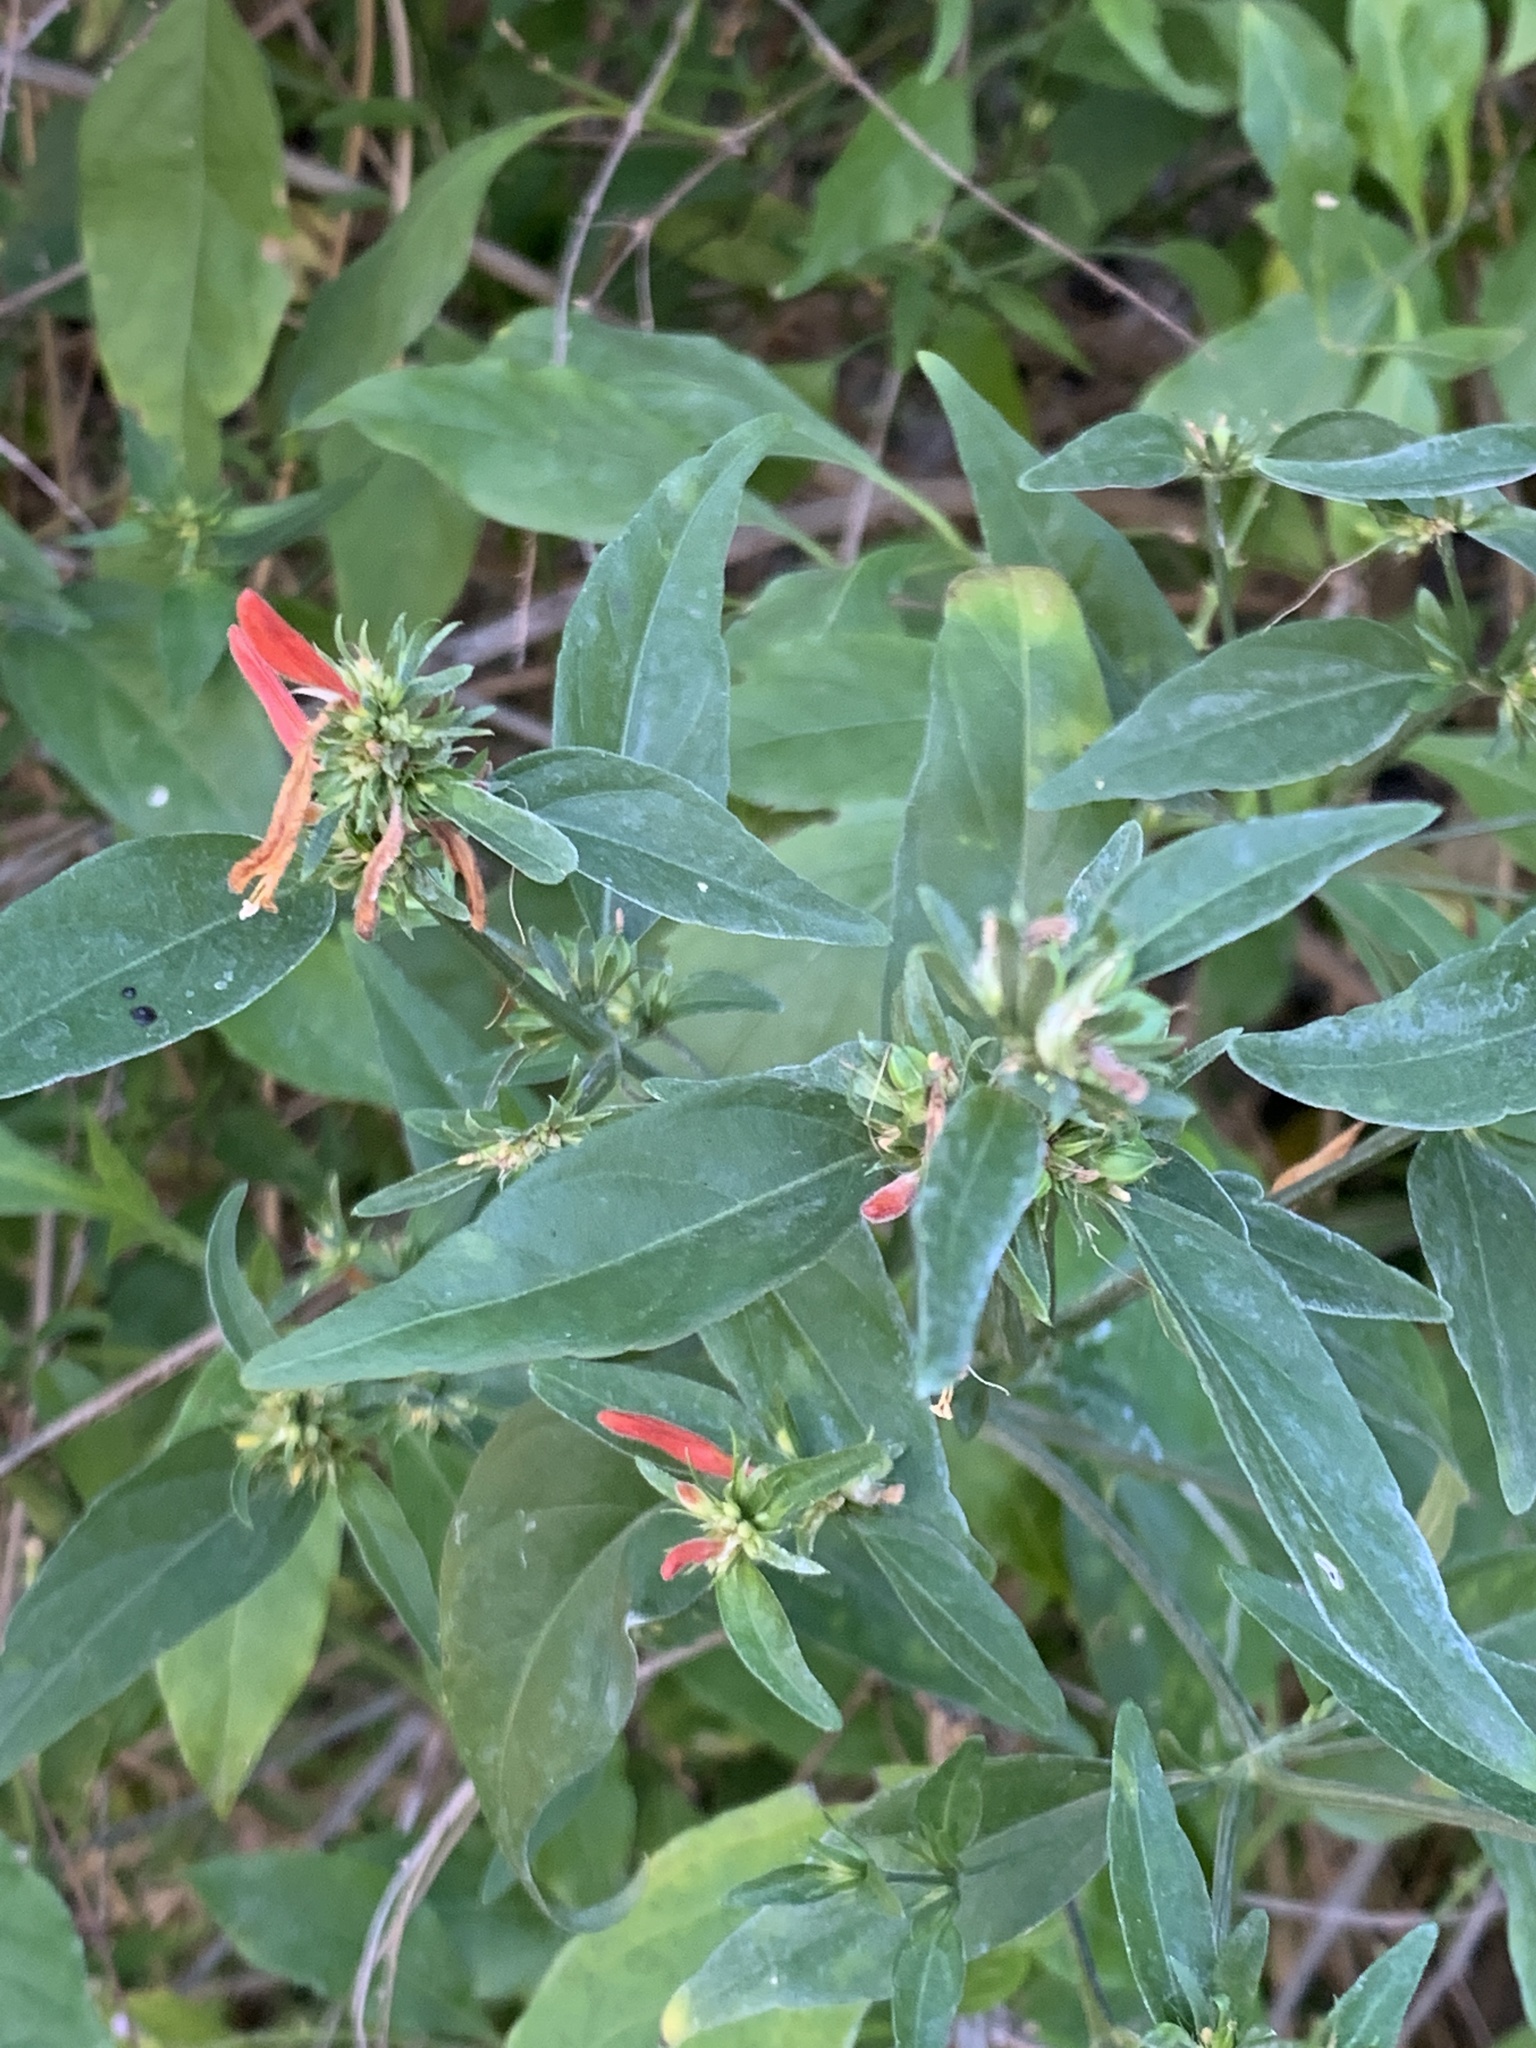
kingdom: Plantae
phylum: Tracheophyta
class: Magnoliopsida
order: Lamiales
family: Acanthaceae
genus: Dicliptera
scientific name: Dicliptera squarrosa
